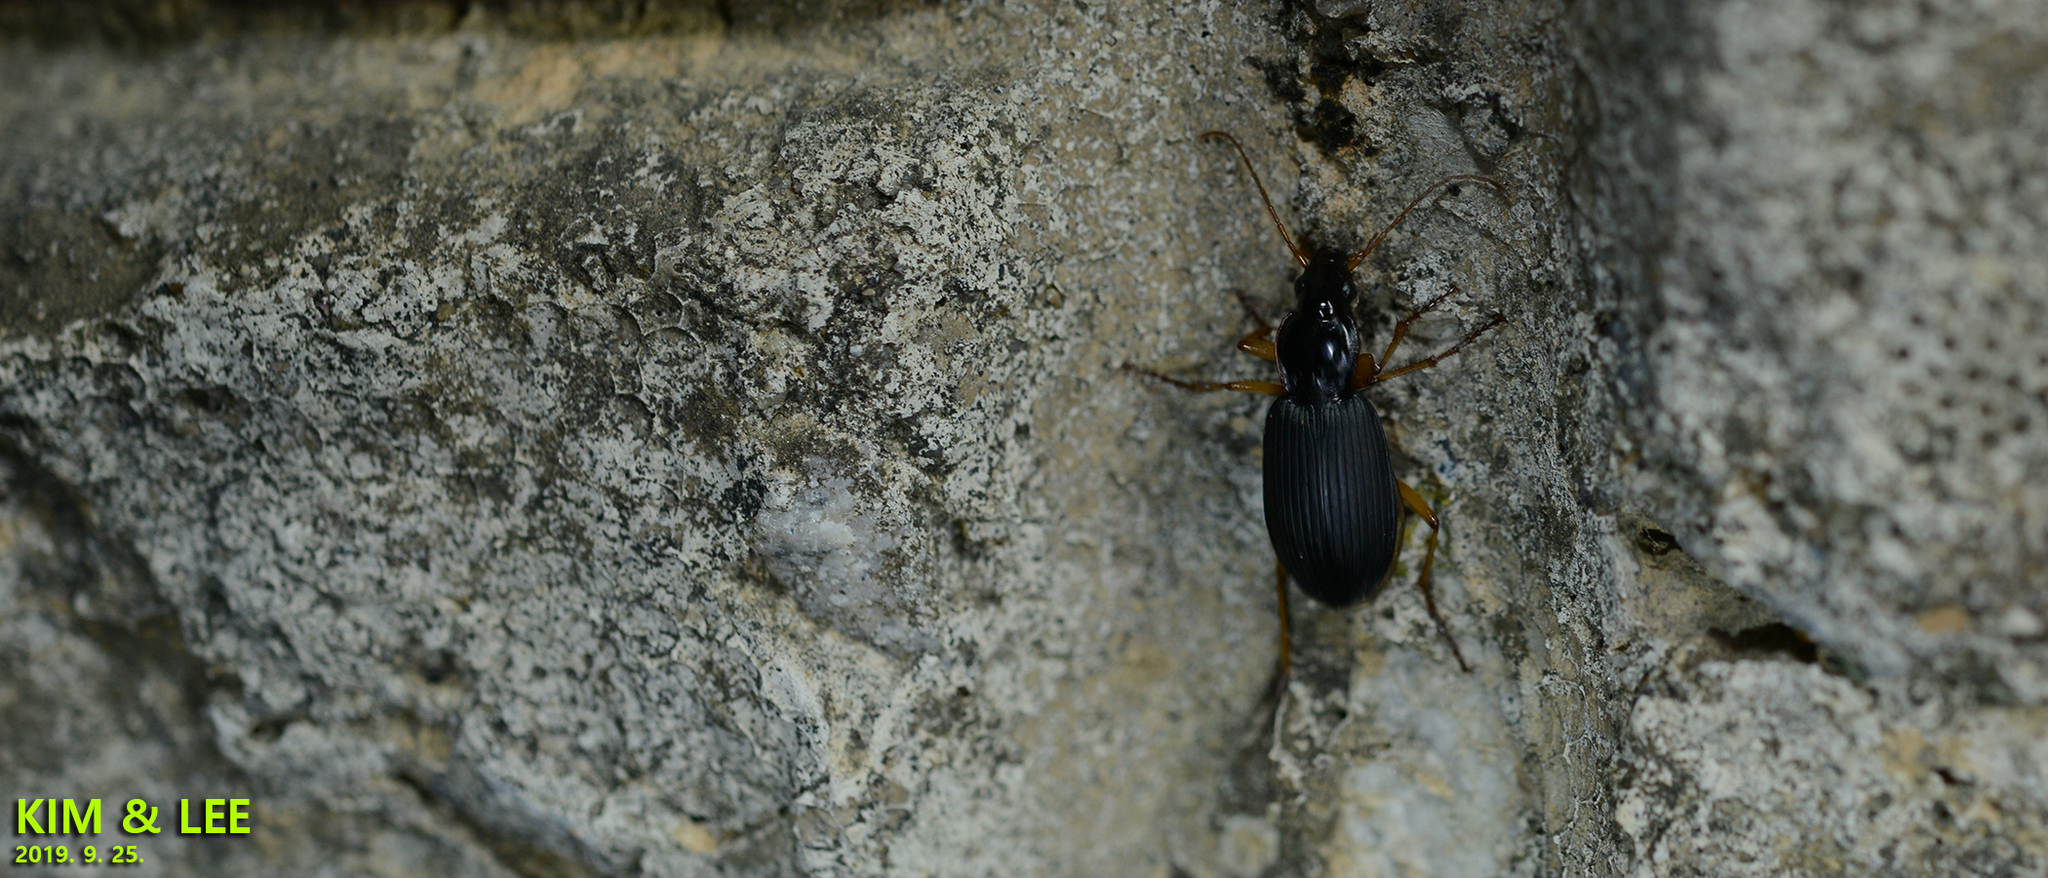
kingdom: Animalia
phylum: Arthropoda
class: Insecta
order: Coleoptera
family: Carabidae
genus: Dolichus
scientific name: Dolichus halensis
